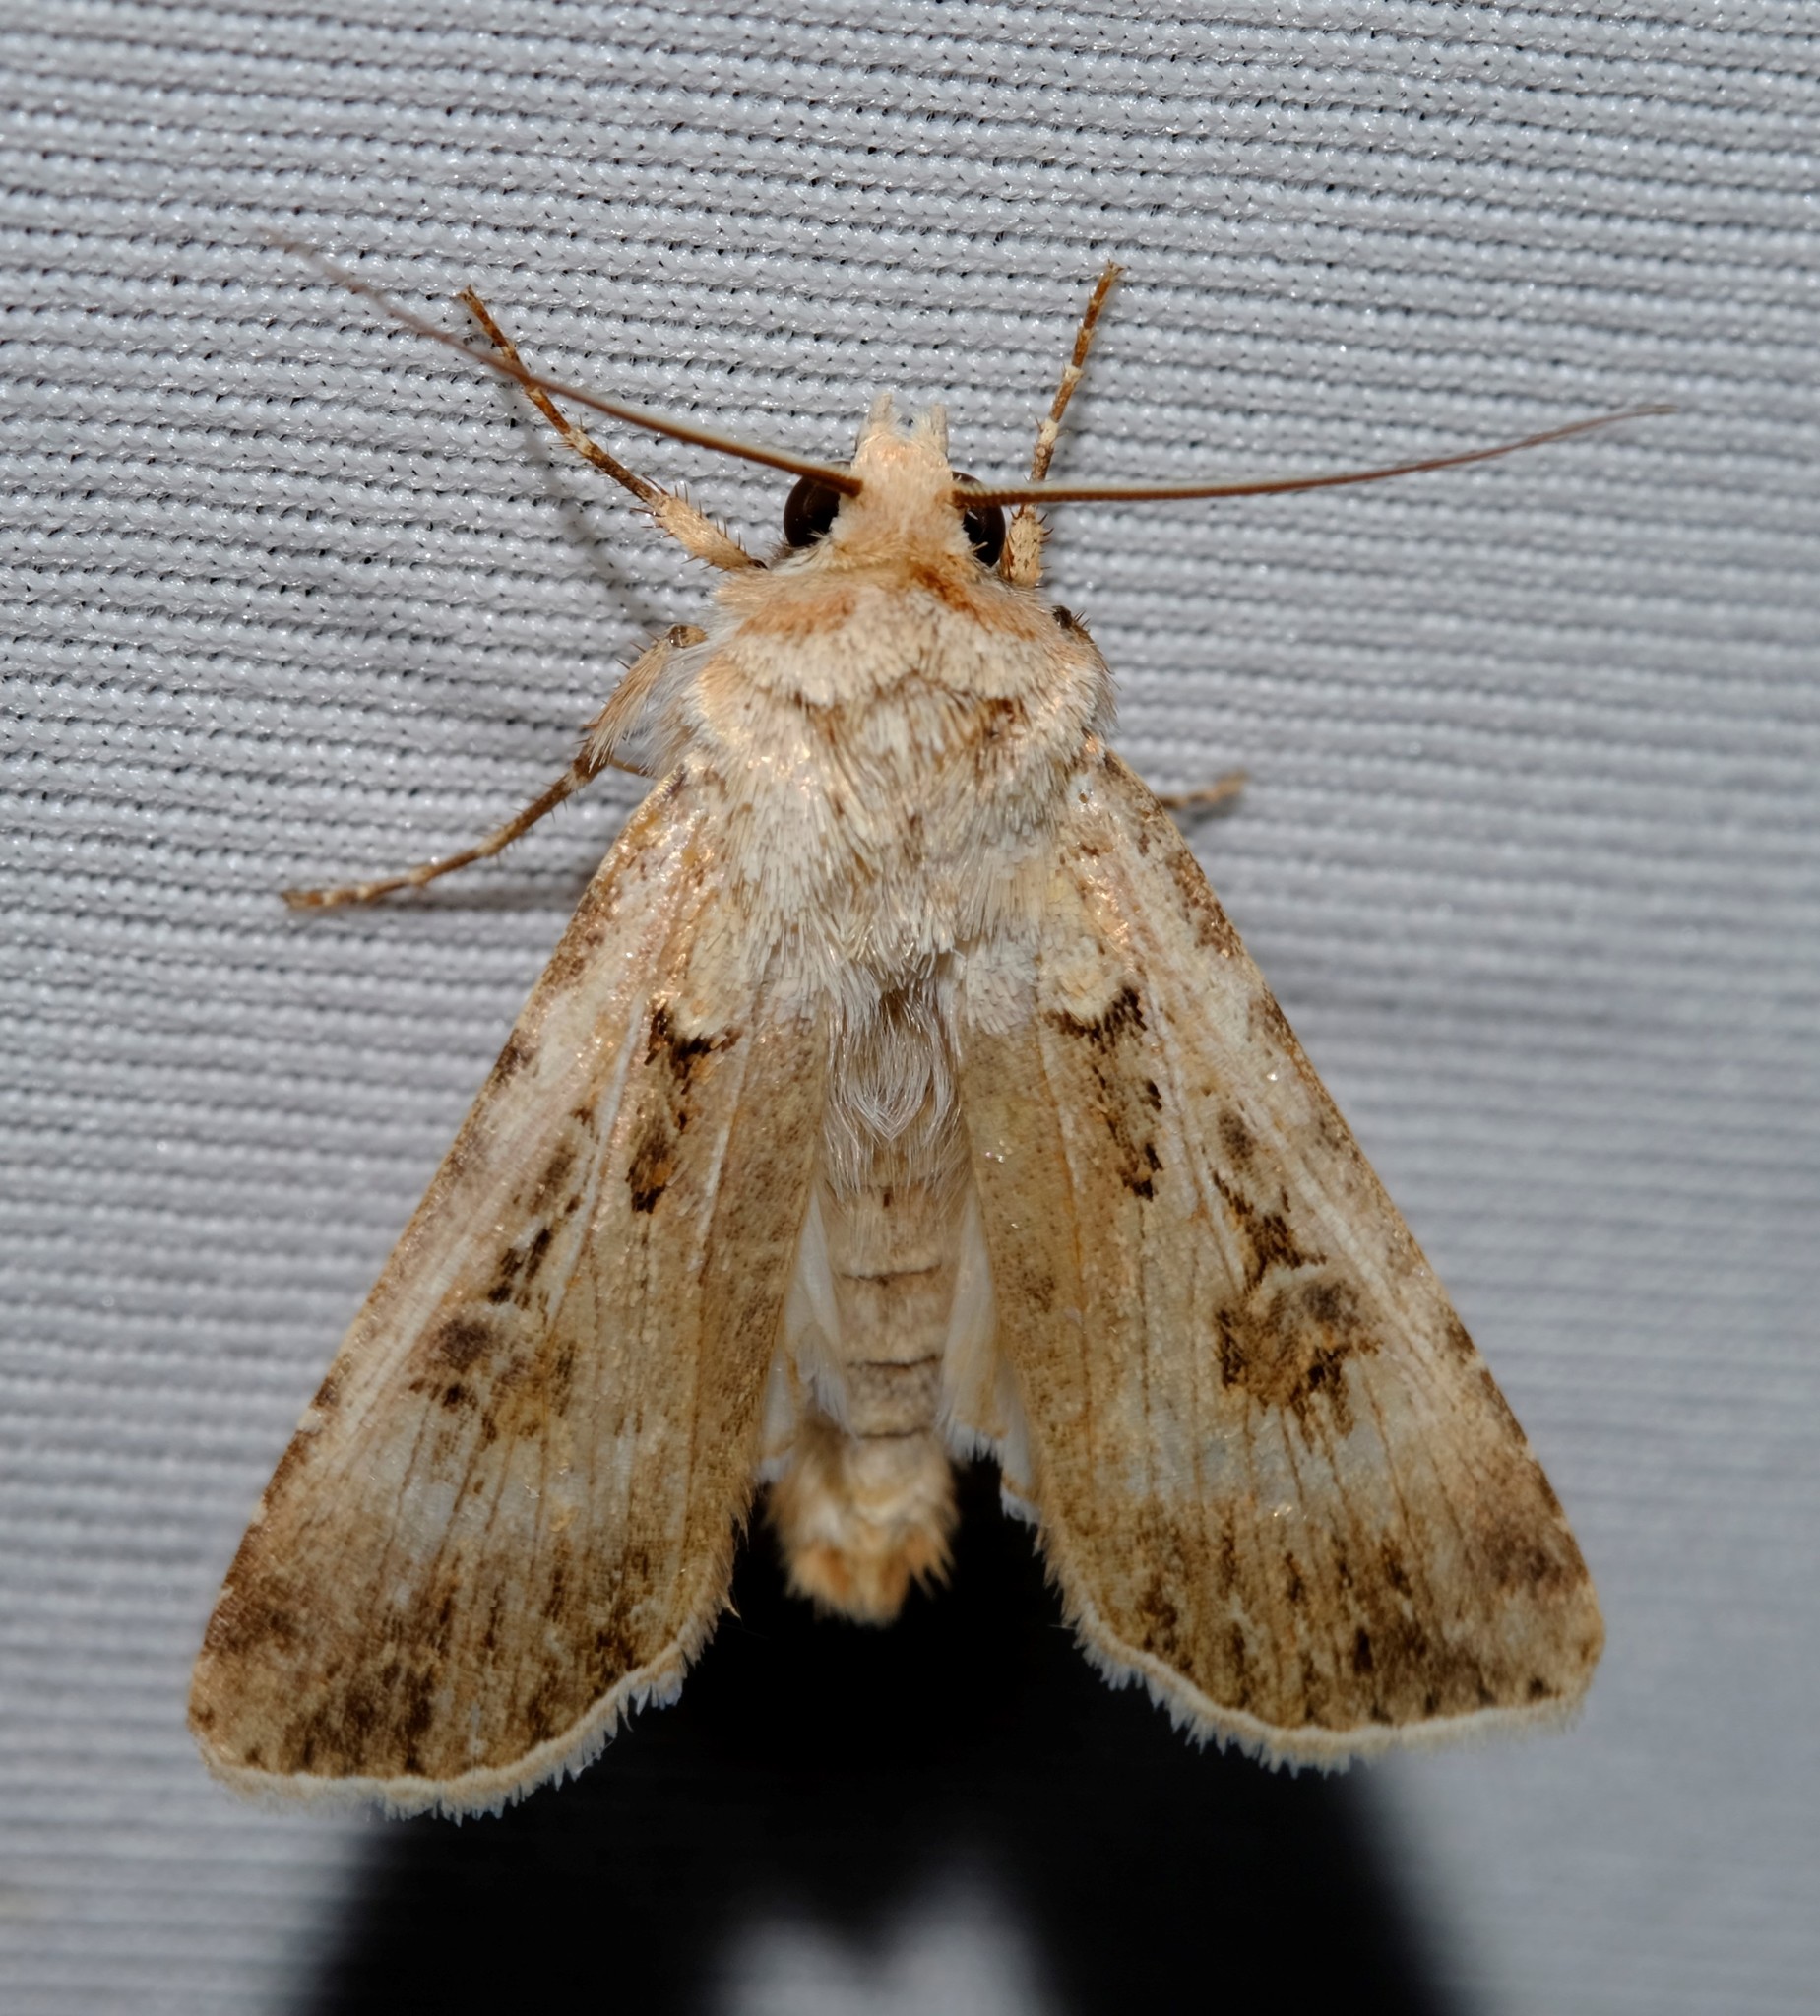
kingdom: Animalia
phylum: Arthropoda
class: Insecta
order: Lepidoptera
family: Noctuidae
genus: Agrotis
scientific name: Agrotis munda
